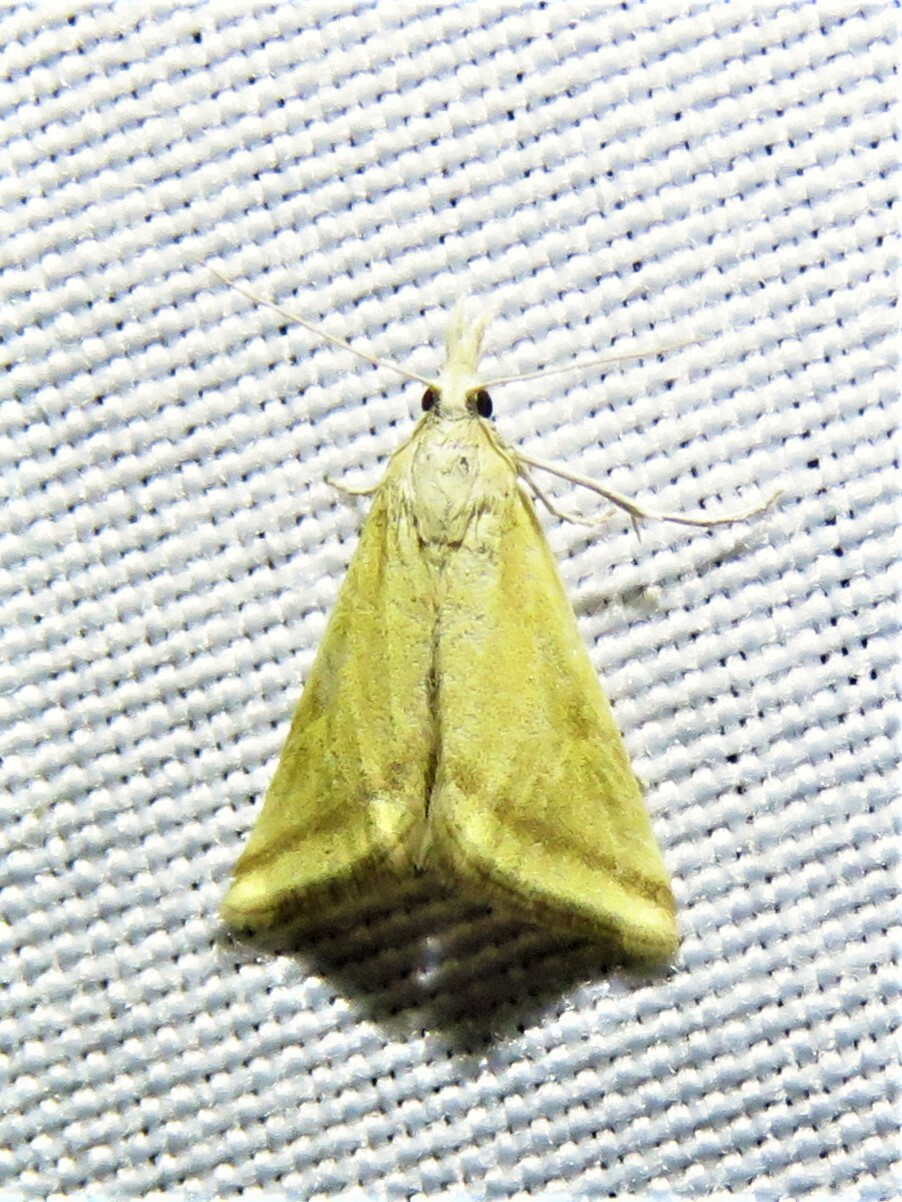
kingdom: Animalia
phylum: Arthropoda
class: Insecta
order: Lepidoptera
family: Crambidae
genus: Microtheoris
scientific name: Microtheoris vibicalis
